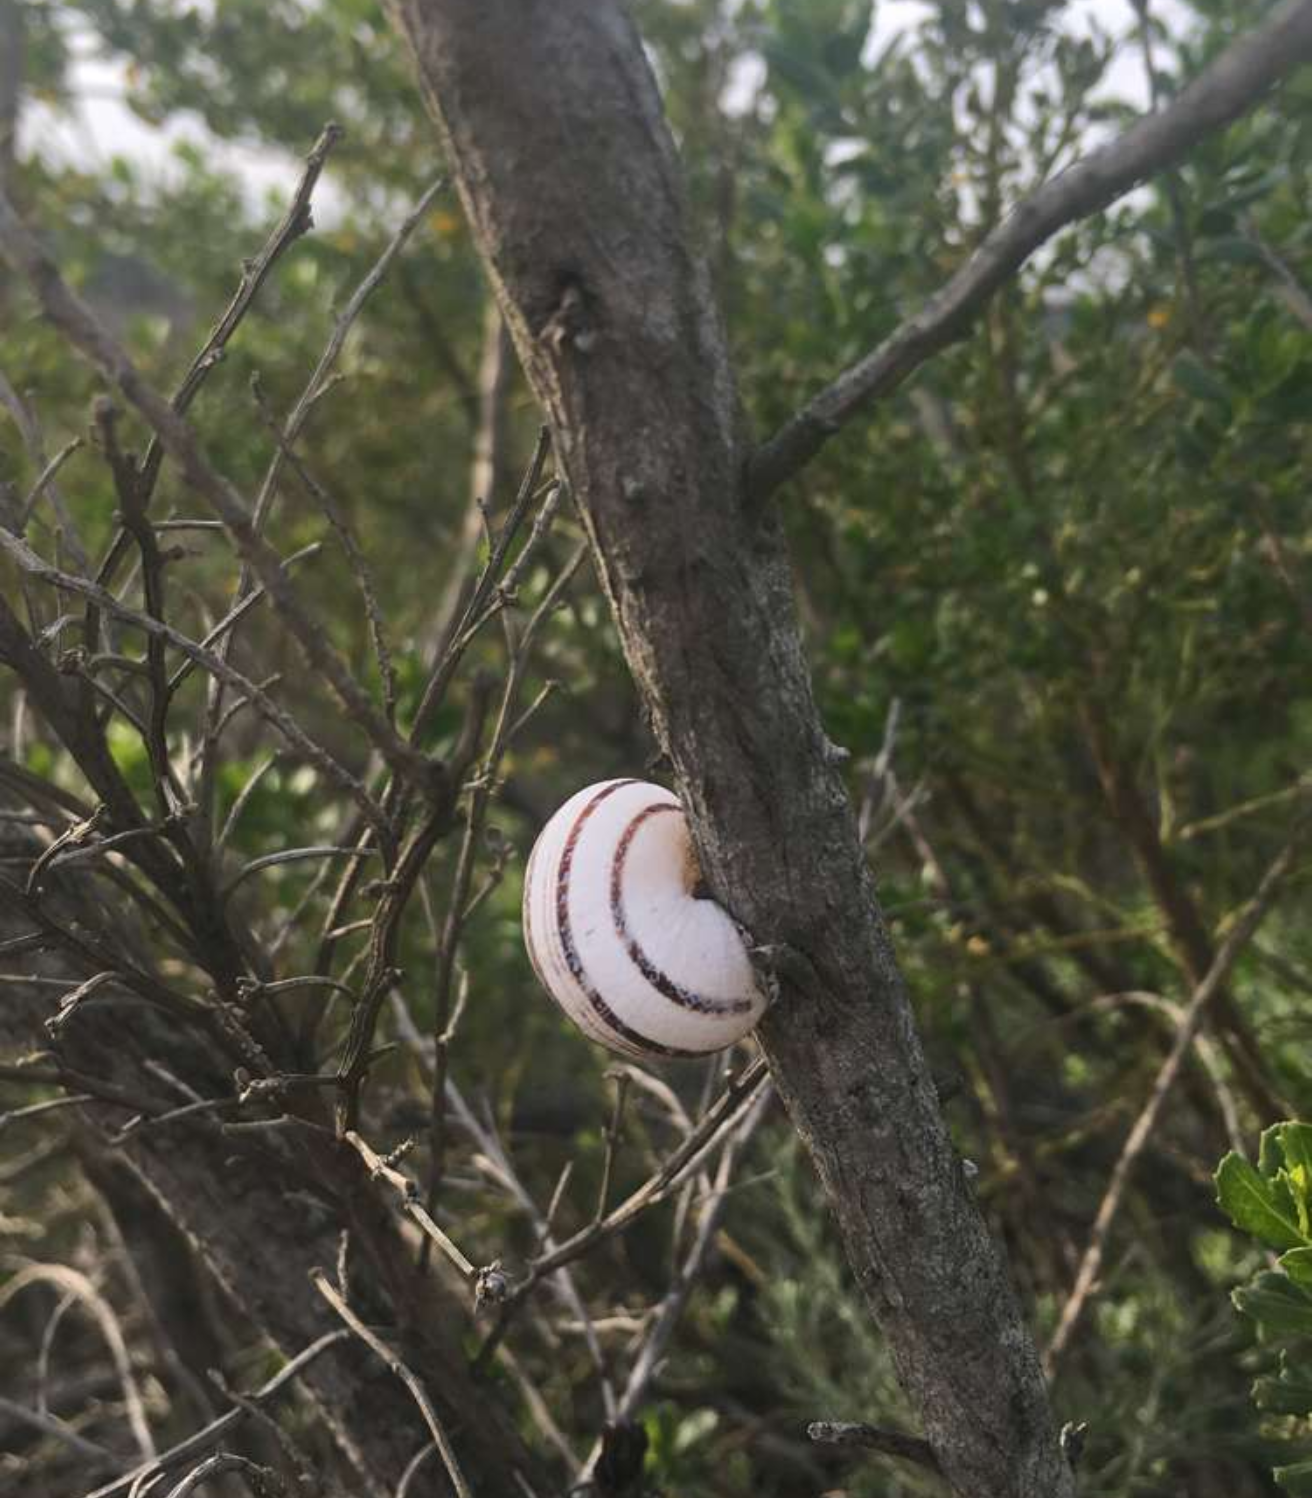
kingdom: Animalia
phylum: Mollusca
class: Gastropoda
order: Stylommatophora
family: Helicidae
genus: Otala
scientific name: Otala lactea
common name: Milk snail
